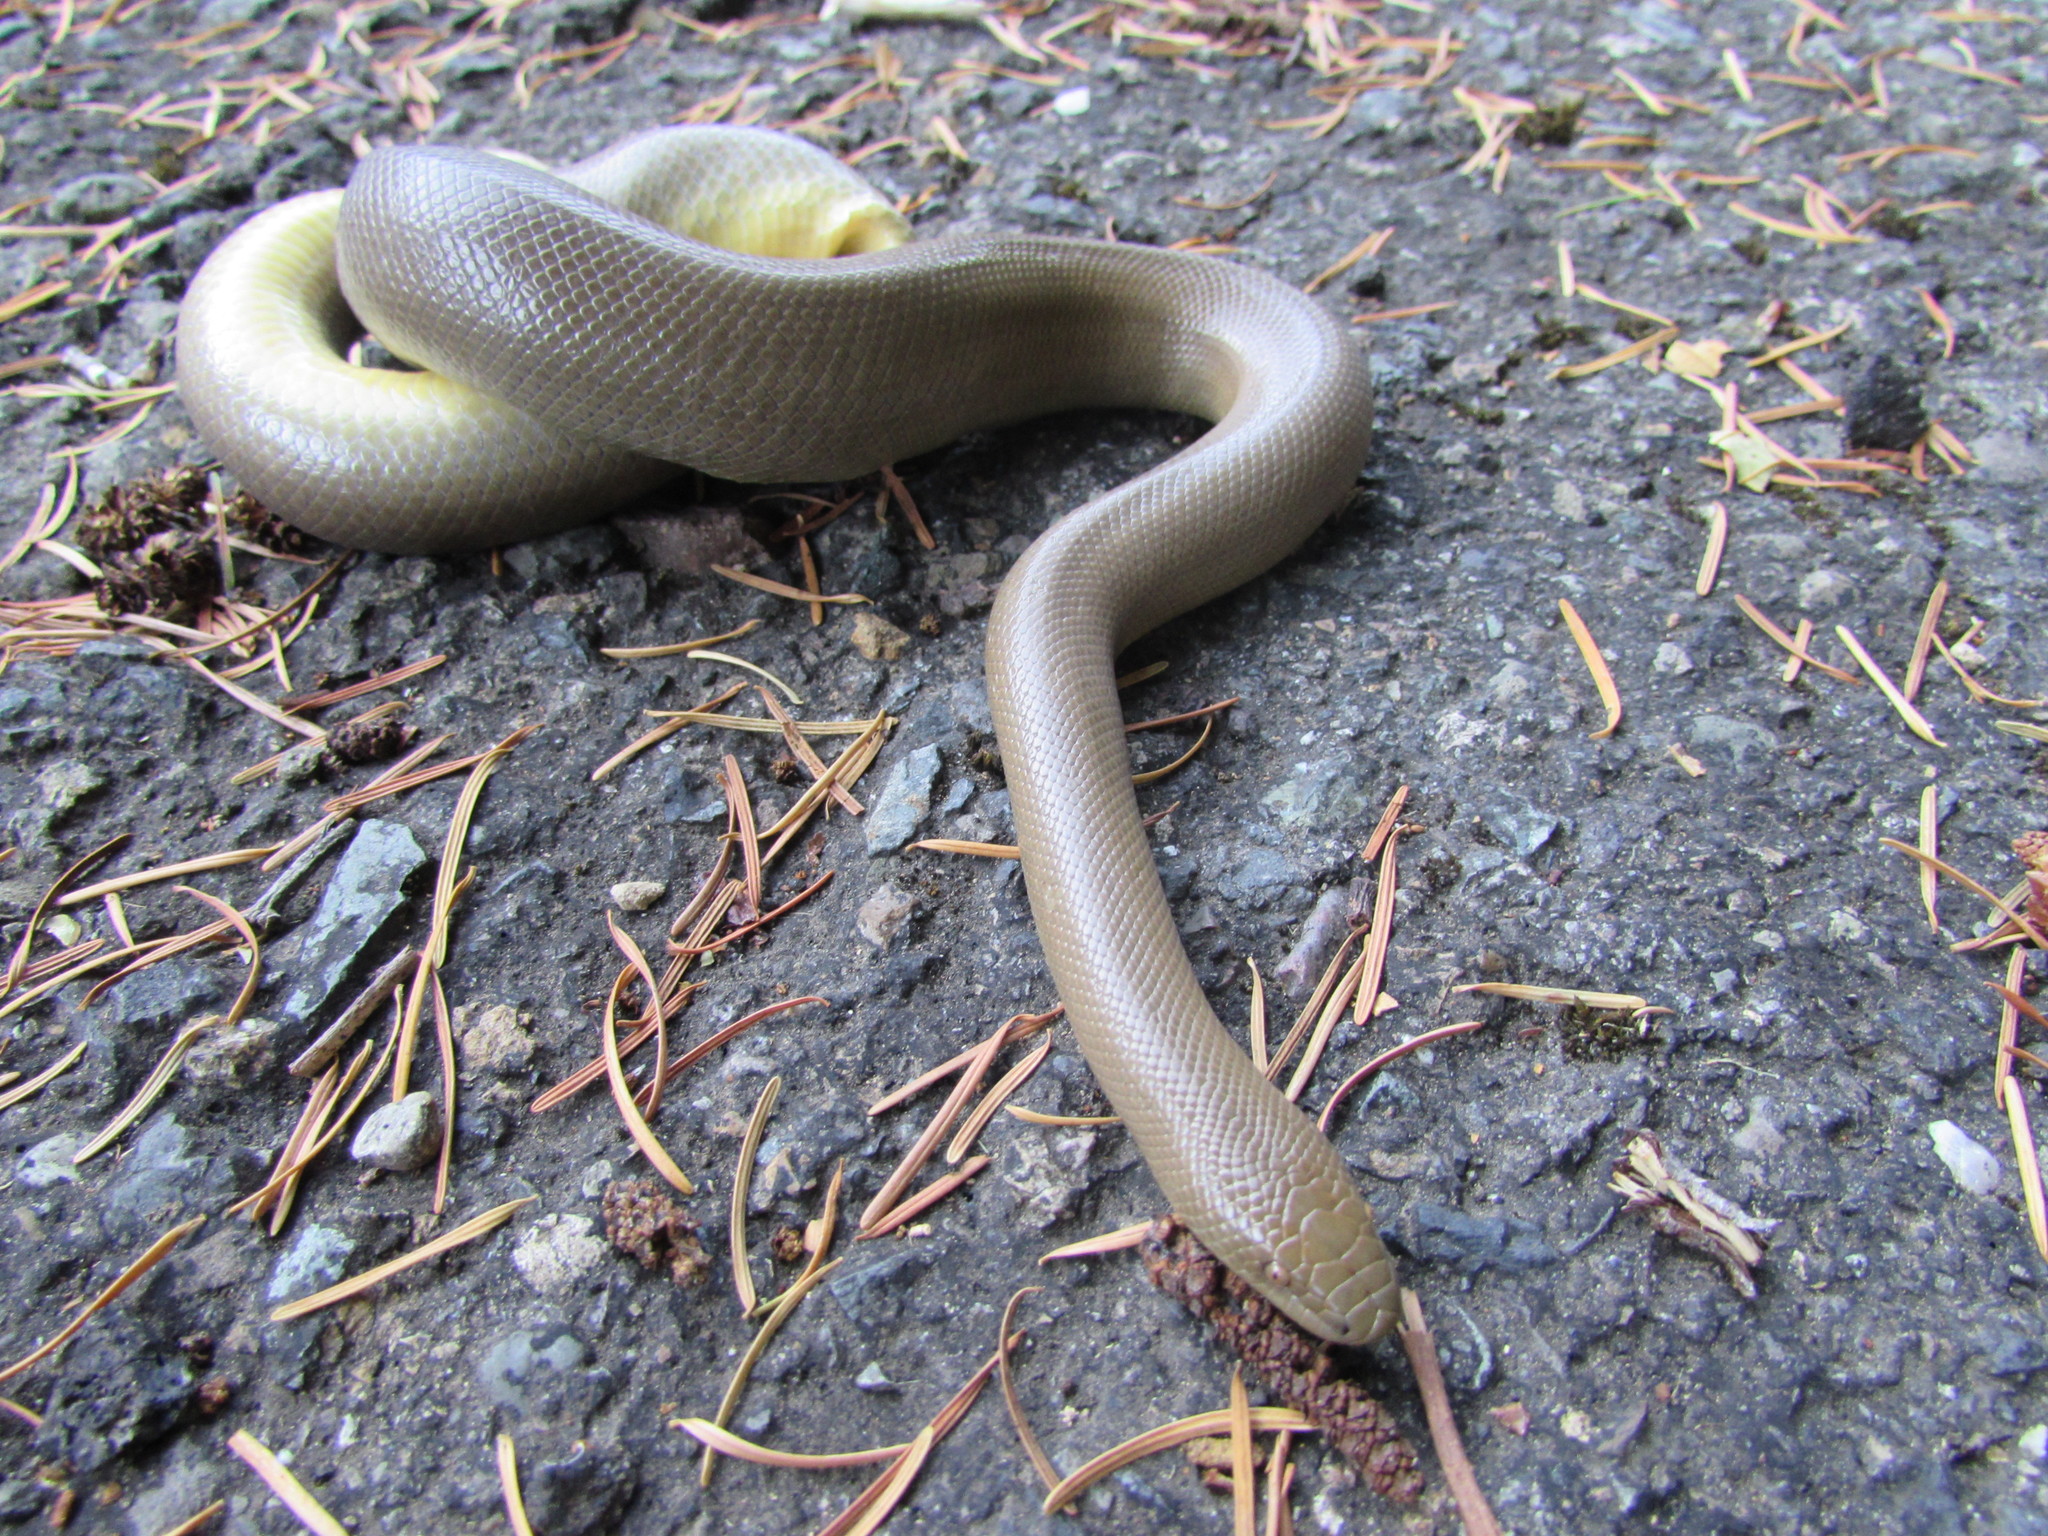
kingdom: Animalia
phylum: Chordata
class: Squamata
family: Boidae
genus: Charina
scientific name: Charina bottae
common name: Northern rubber boa
